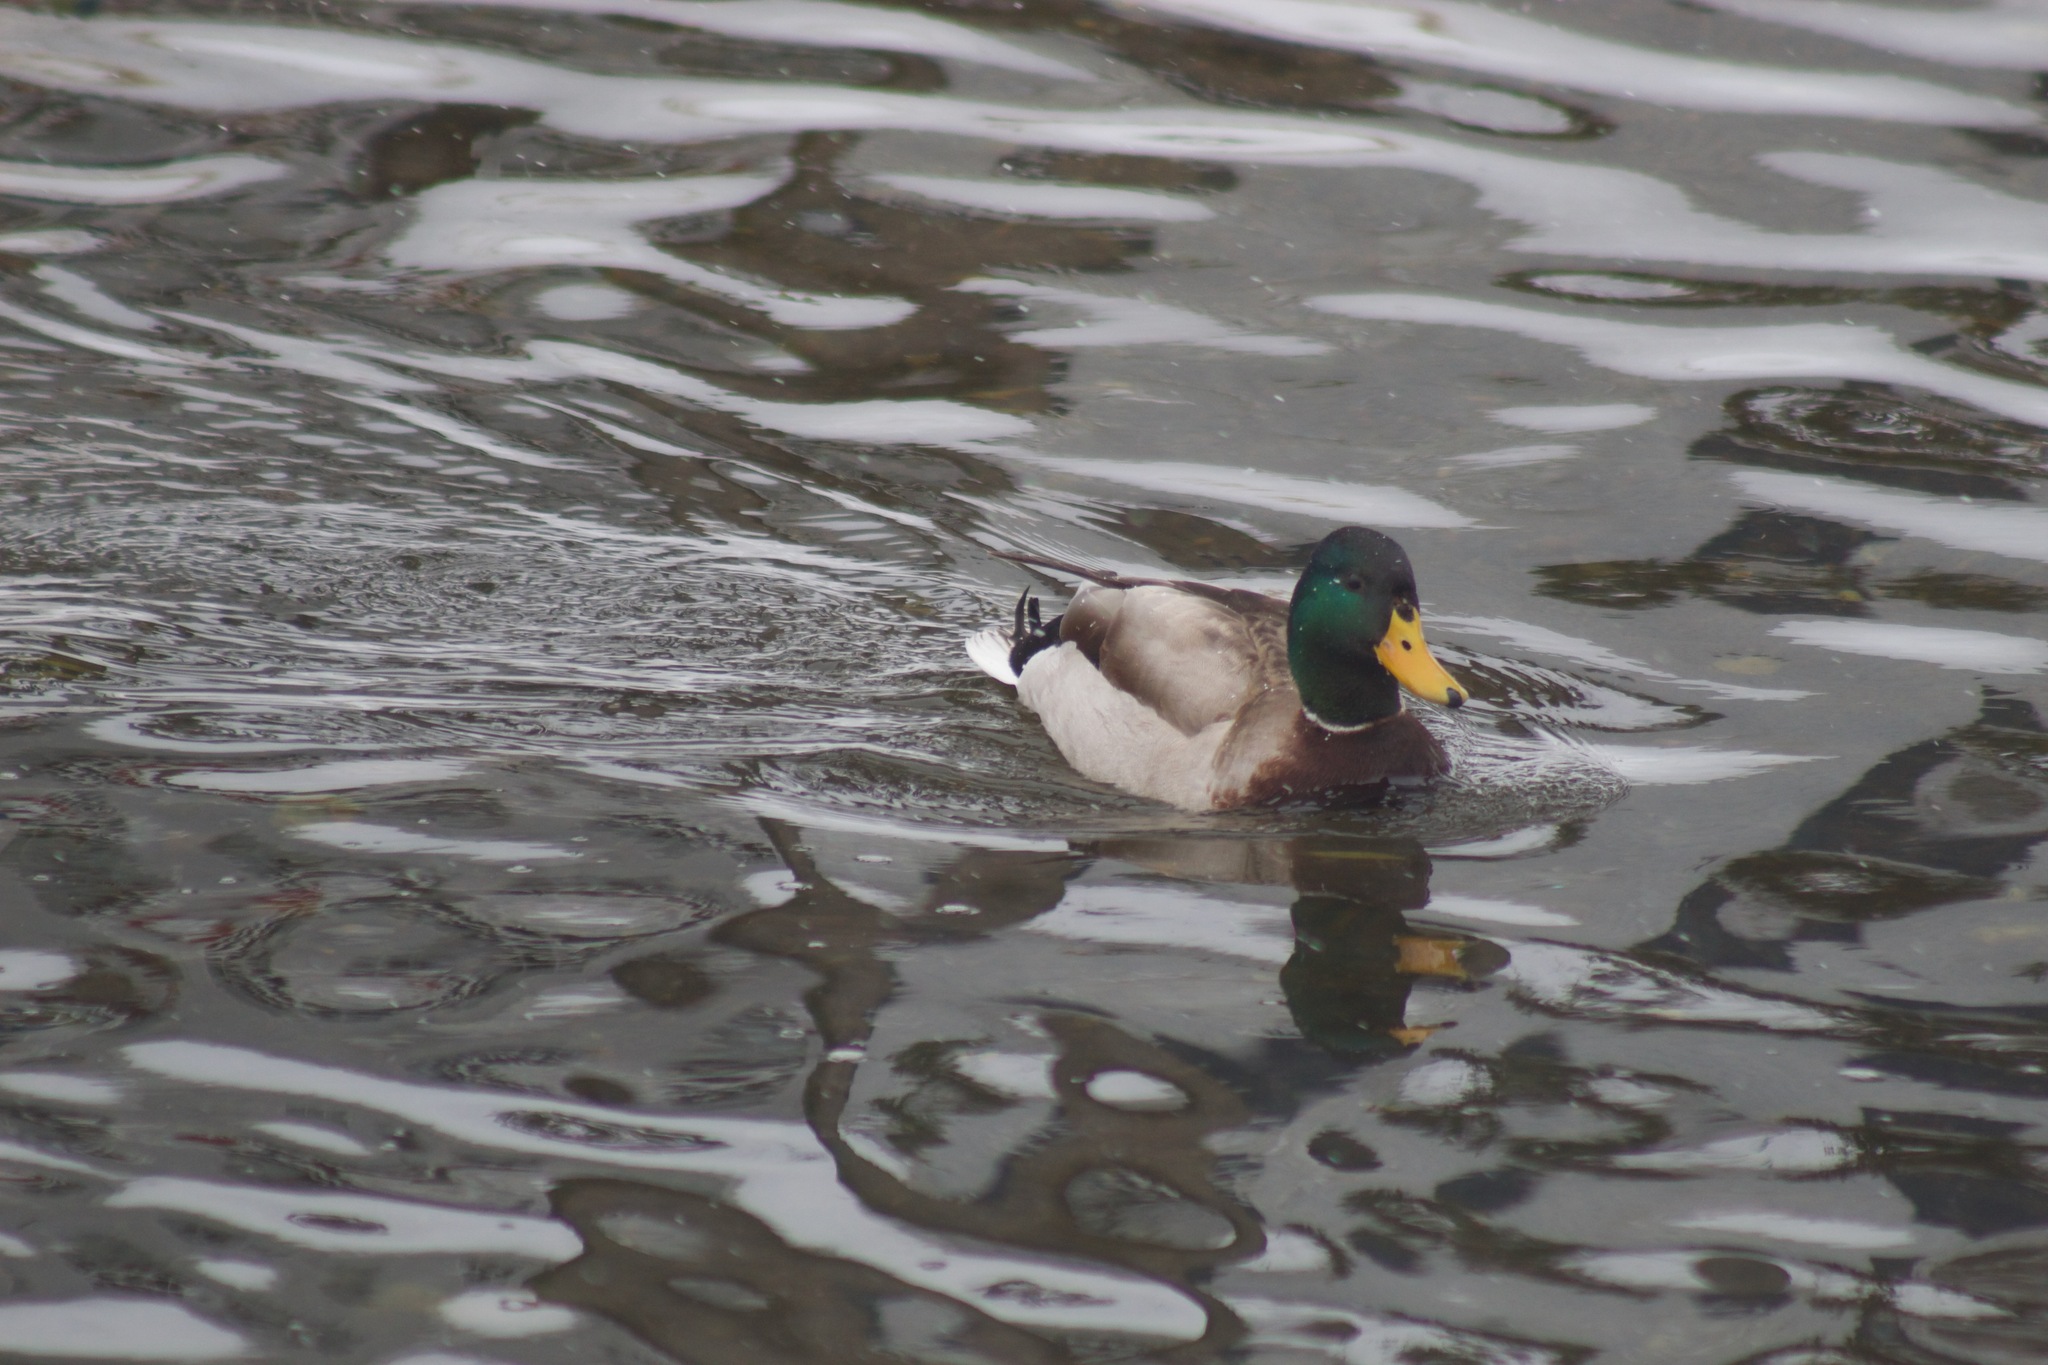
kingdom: Animalia
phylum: Chordata
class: Aves
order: Anseriformes
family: Anatidae
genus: Anas
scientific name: Anas platyrhynchos
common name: Mallard
